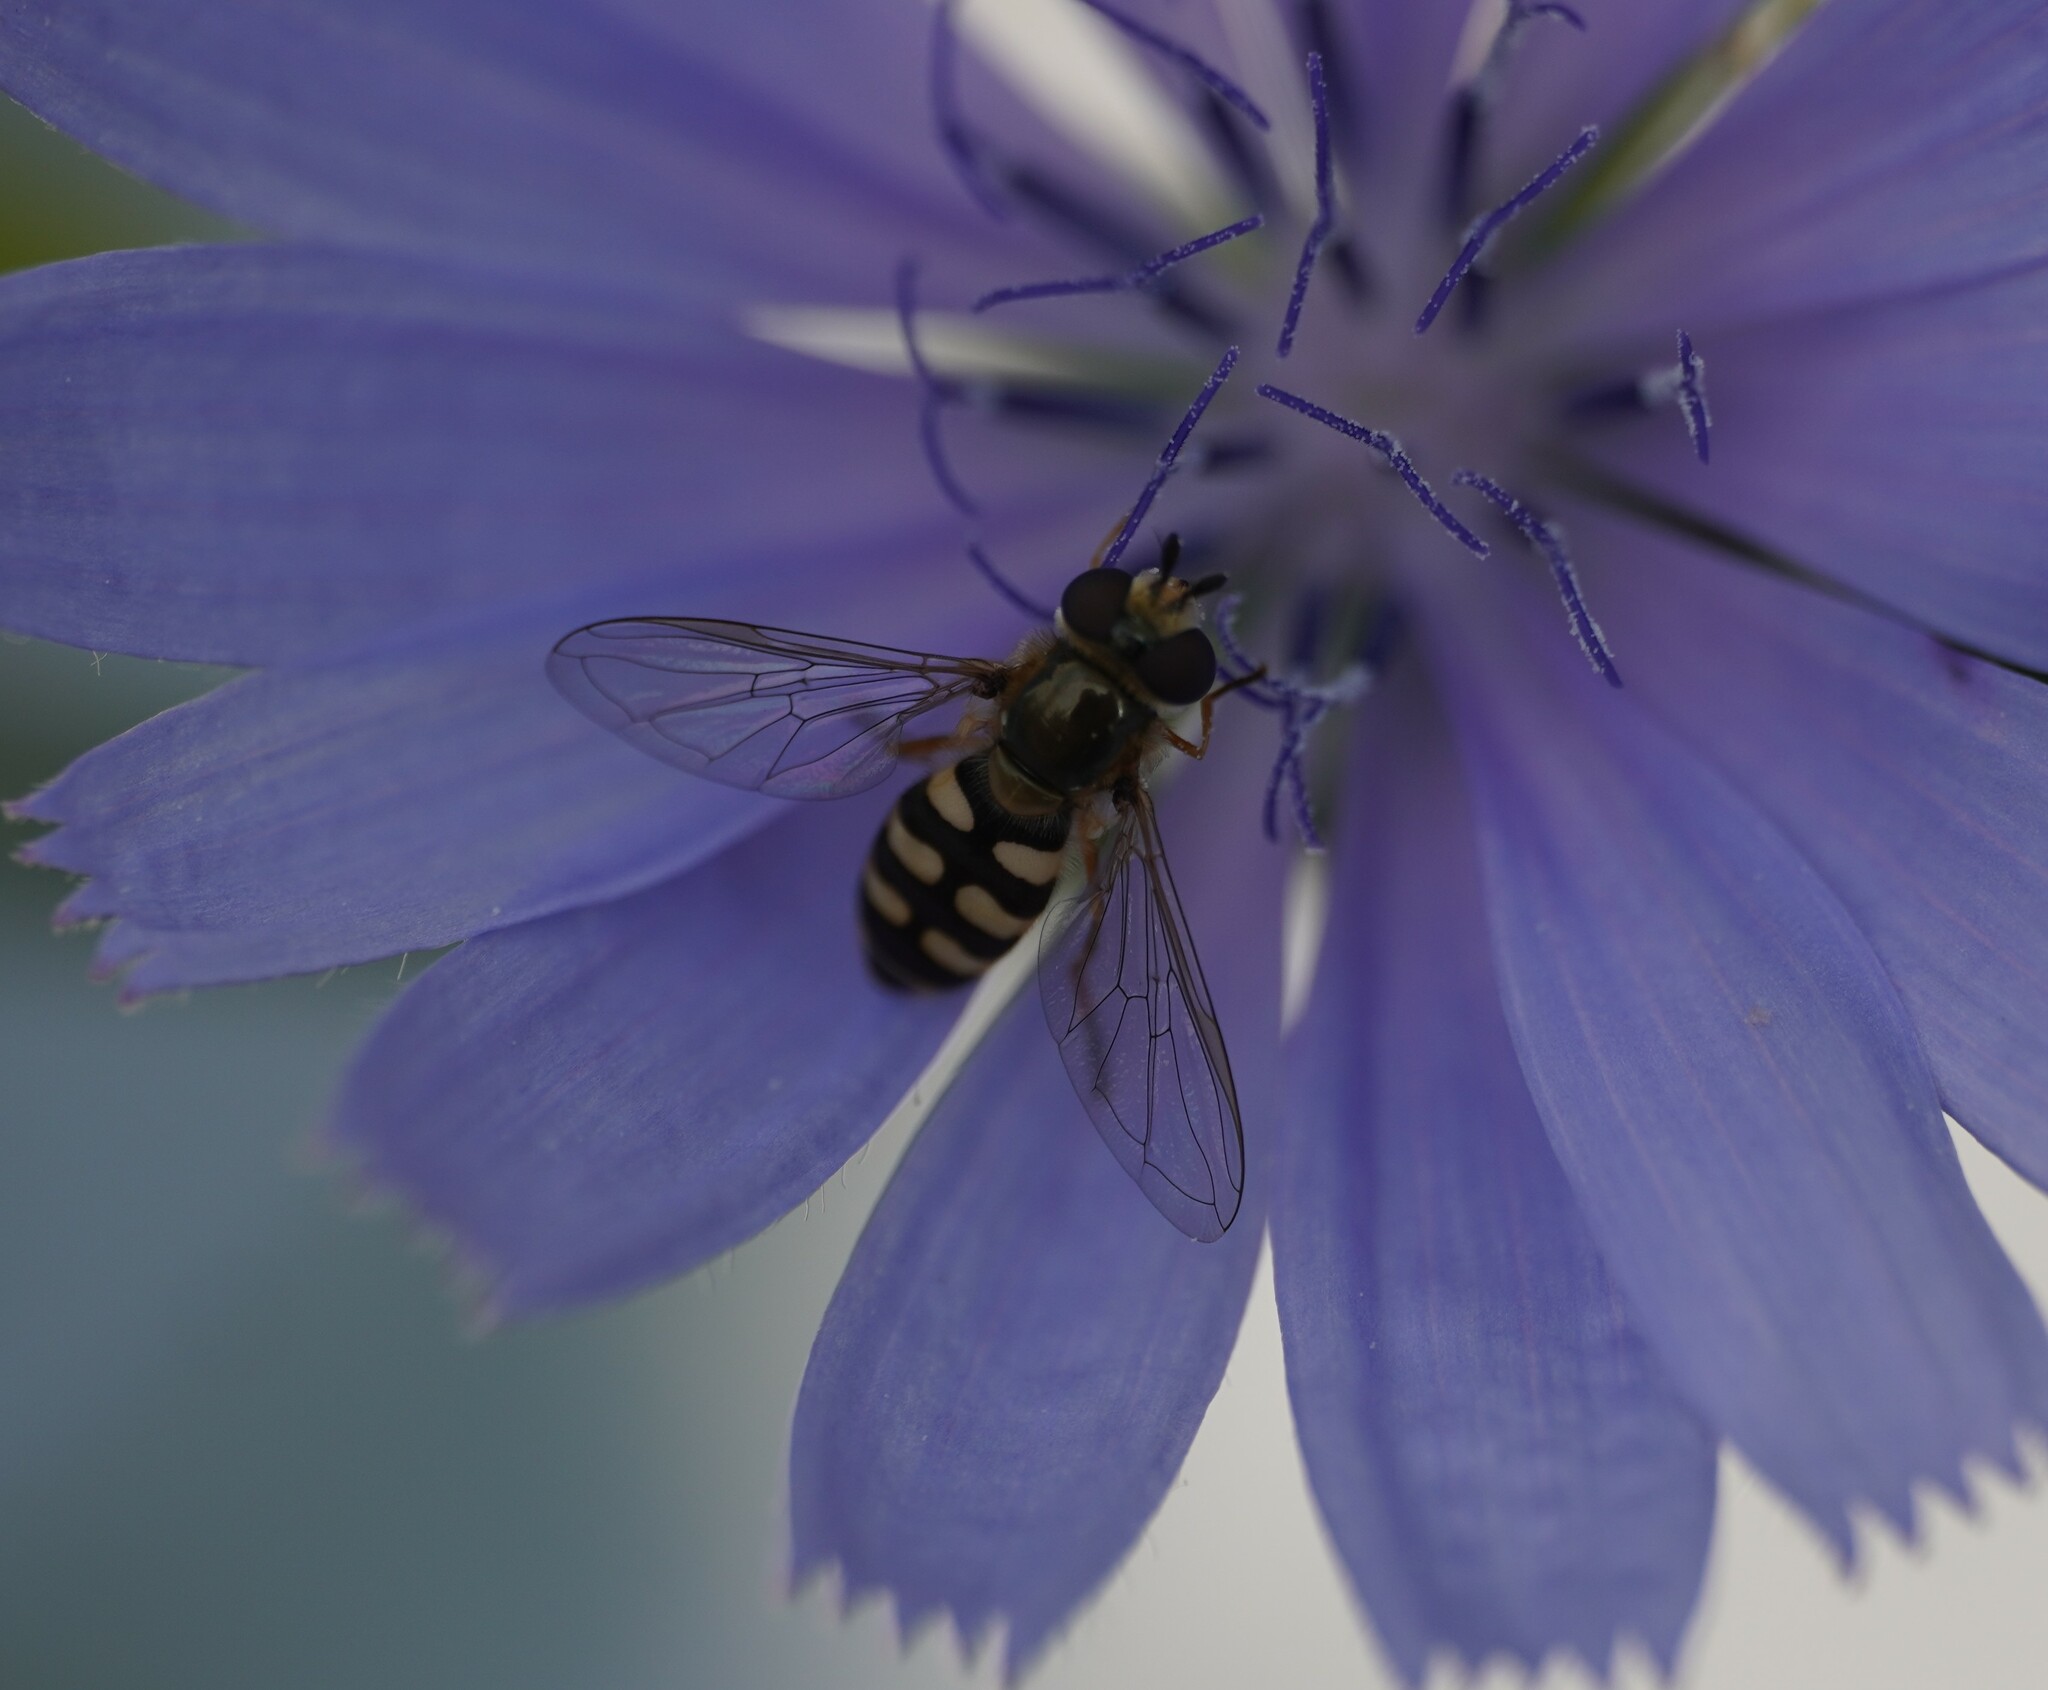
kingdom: Animalia
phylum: Arthropoda
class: Insecta
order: Diptera
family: Syrphidae
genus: Eupeodes
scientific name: Eupeodes corollae
